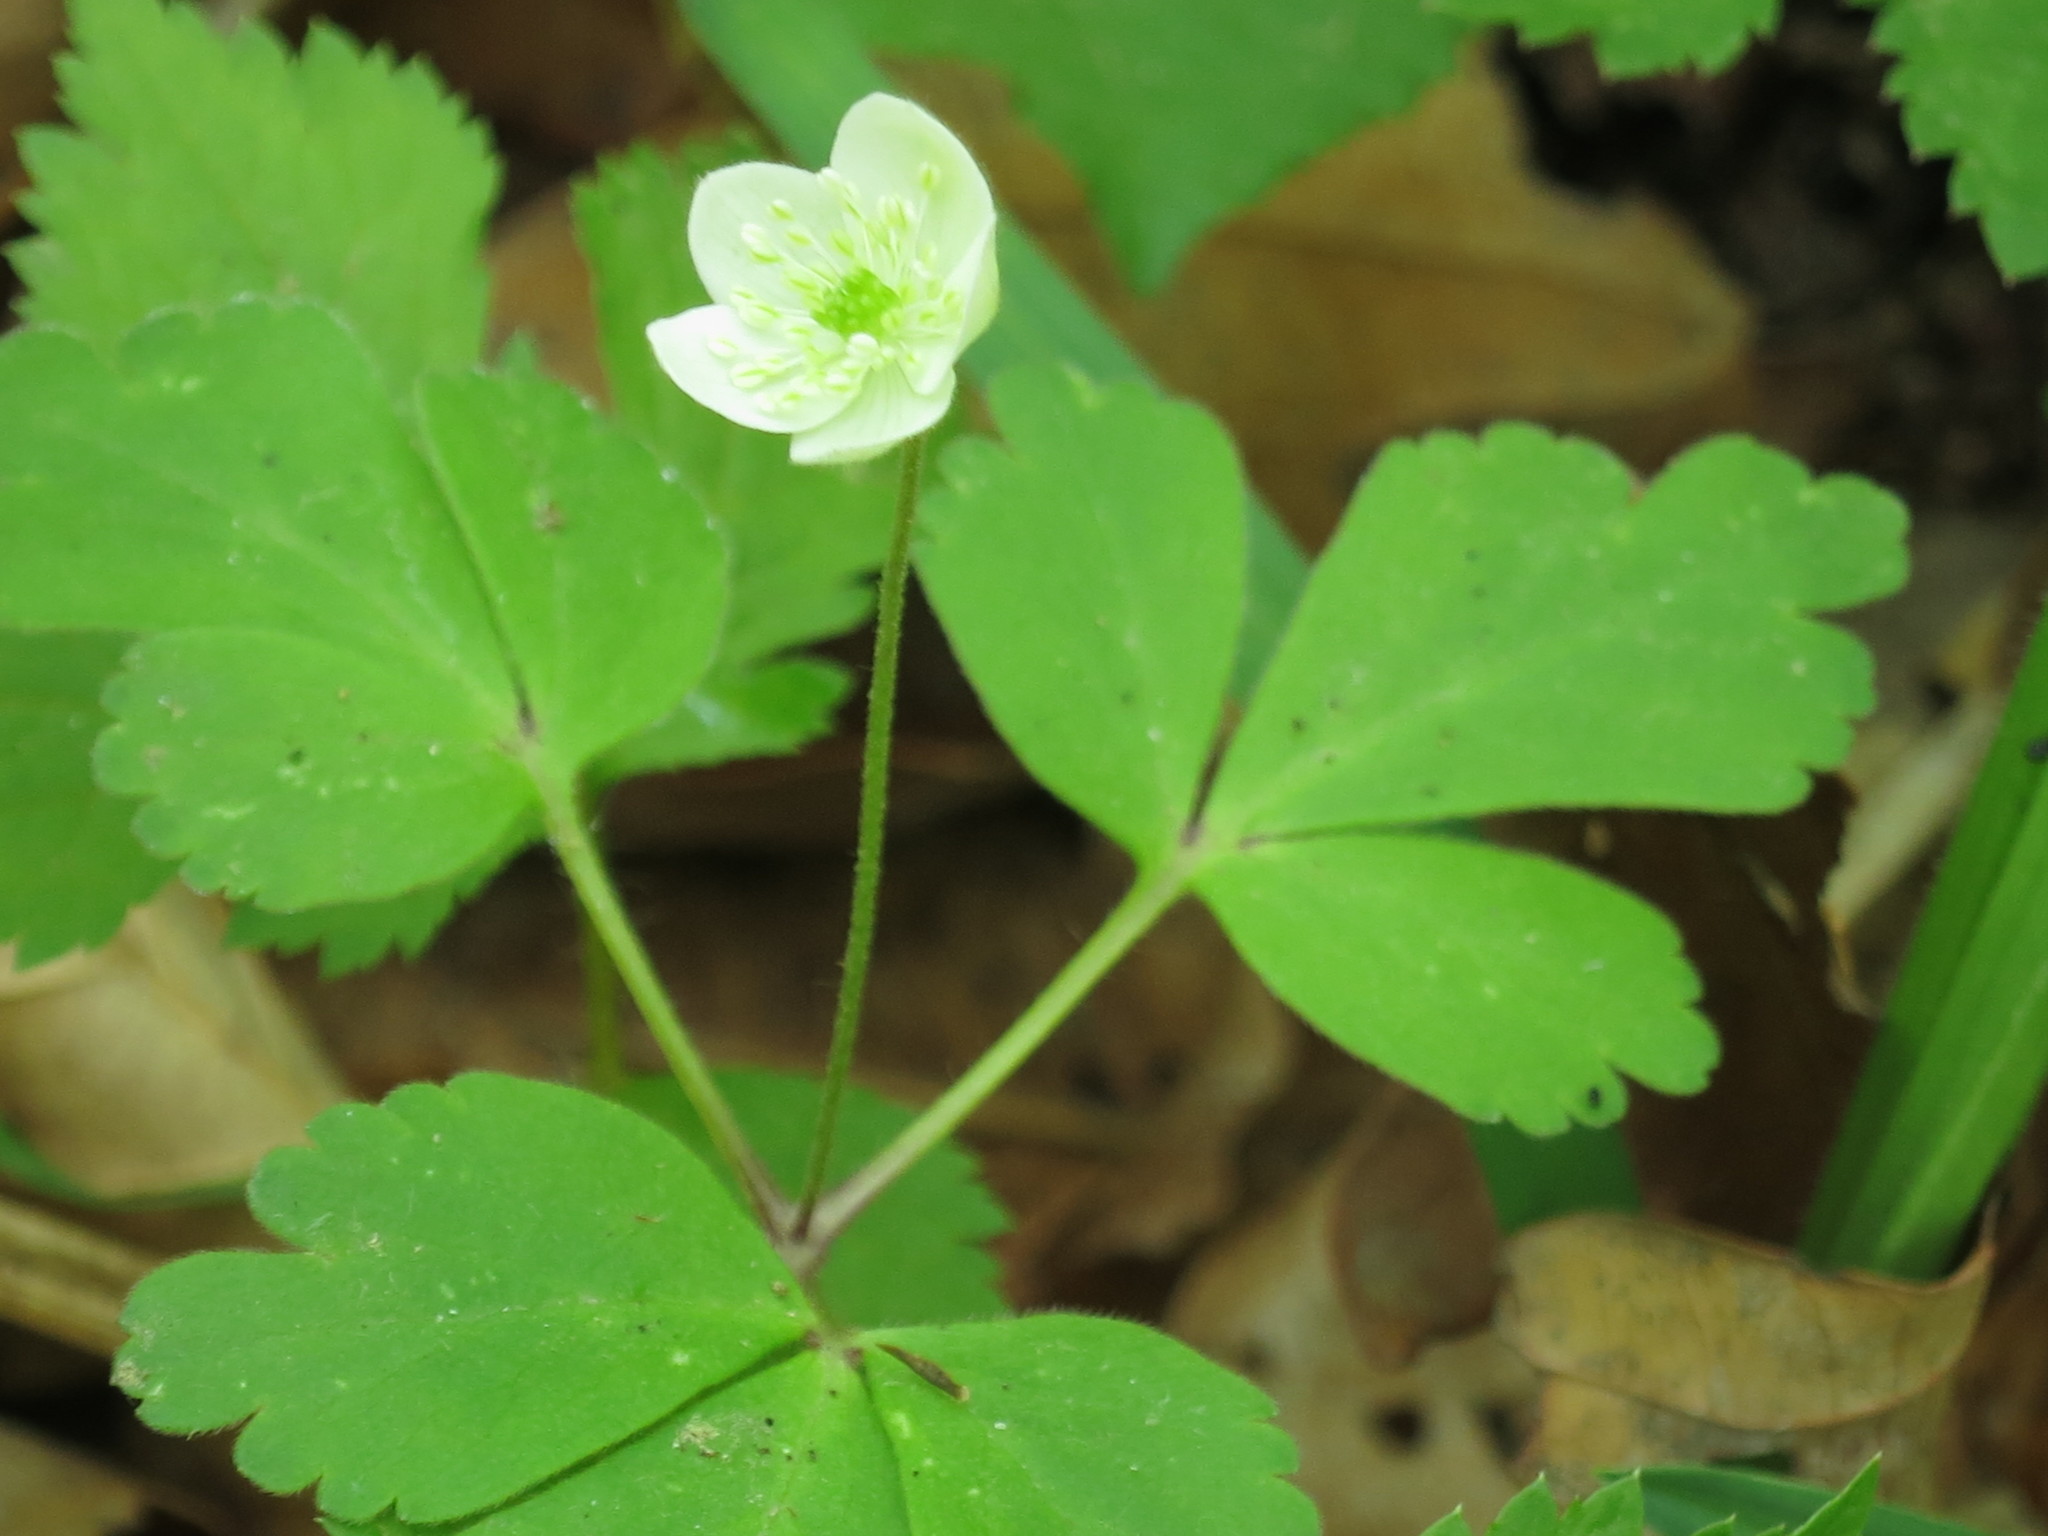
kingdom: Plantae
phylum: Tracheophyta
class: Magnoliopsida
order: Ranunculales
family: Ranunculaceae
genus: Anemone
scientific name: Anemone udensis
